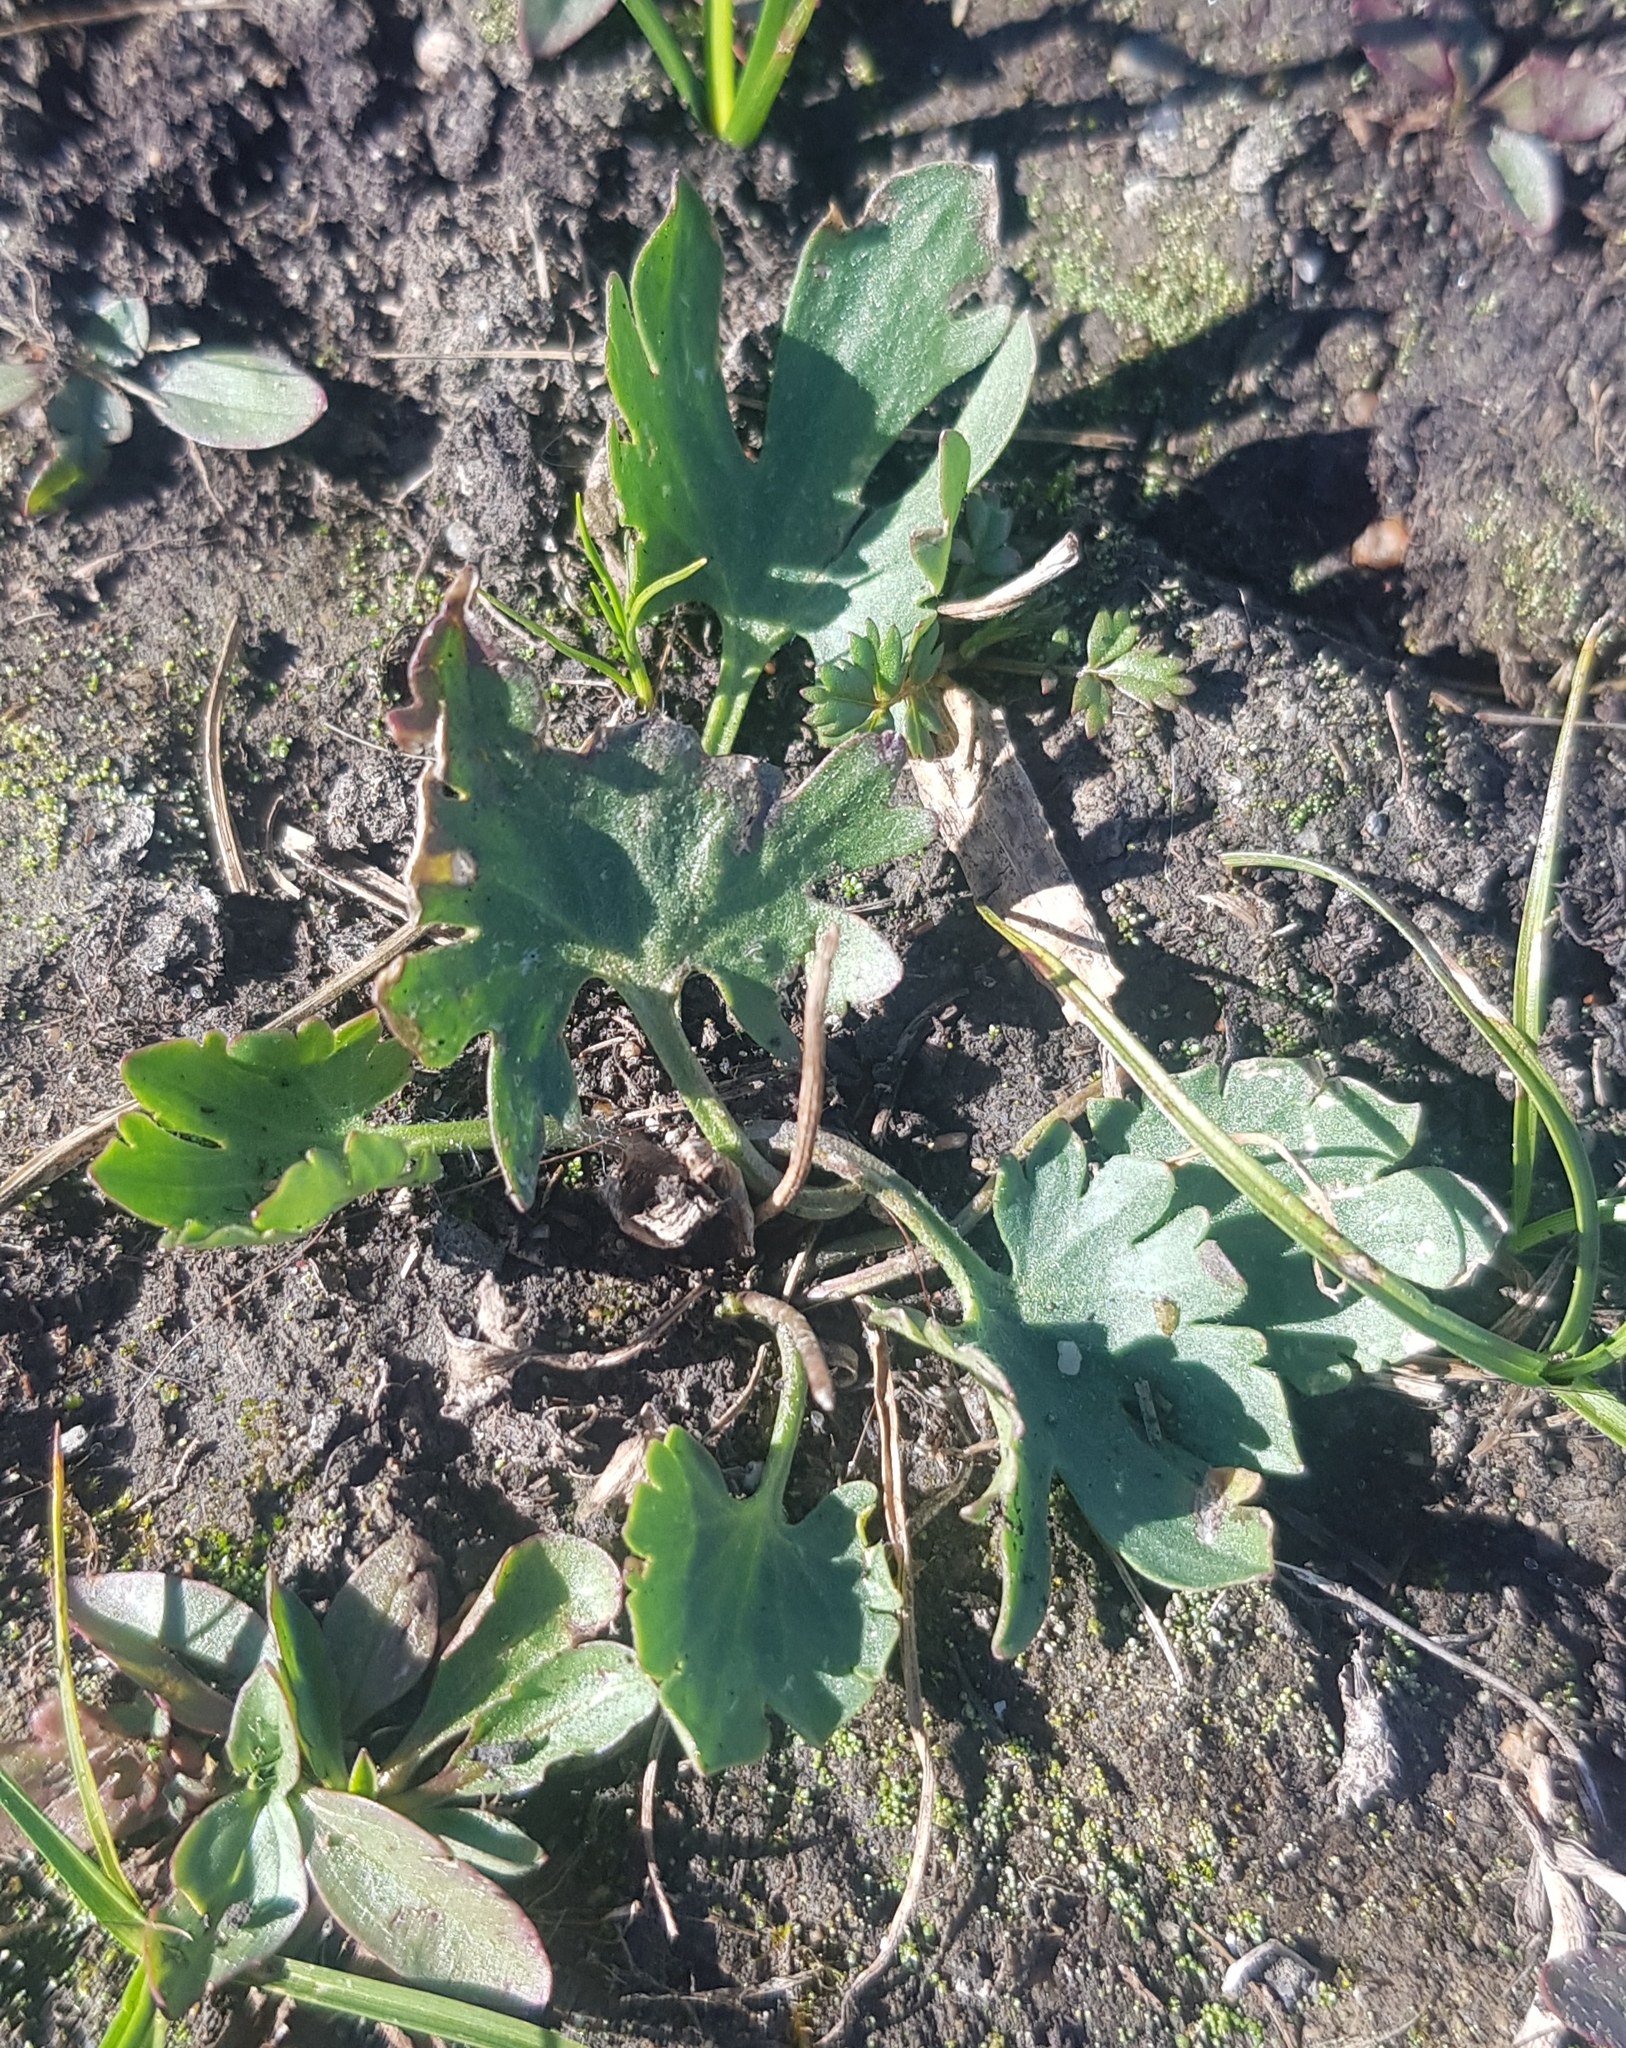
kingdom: Plantae
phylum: Tracheophyta
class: Magnoliopsida
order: Ranunculales
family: Ranunculaceae
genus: Ranunculus
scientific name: Ranunculus propinquus
